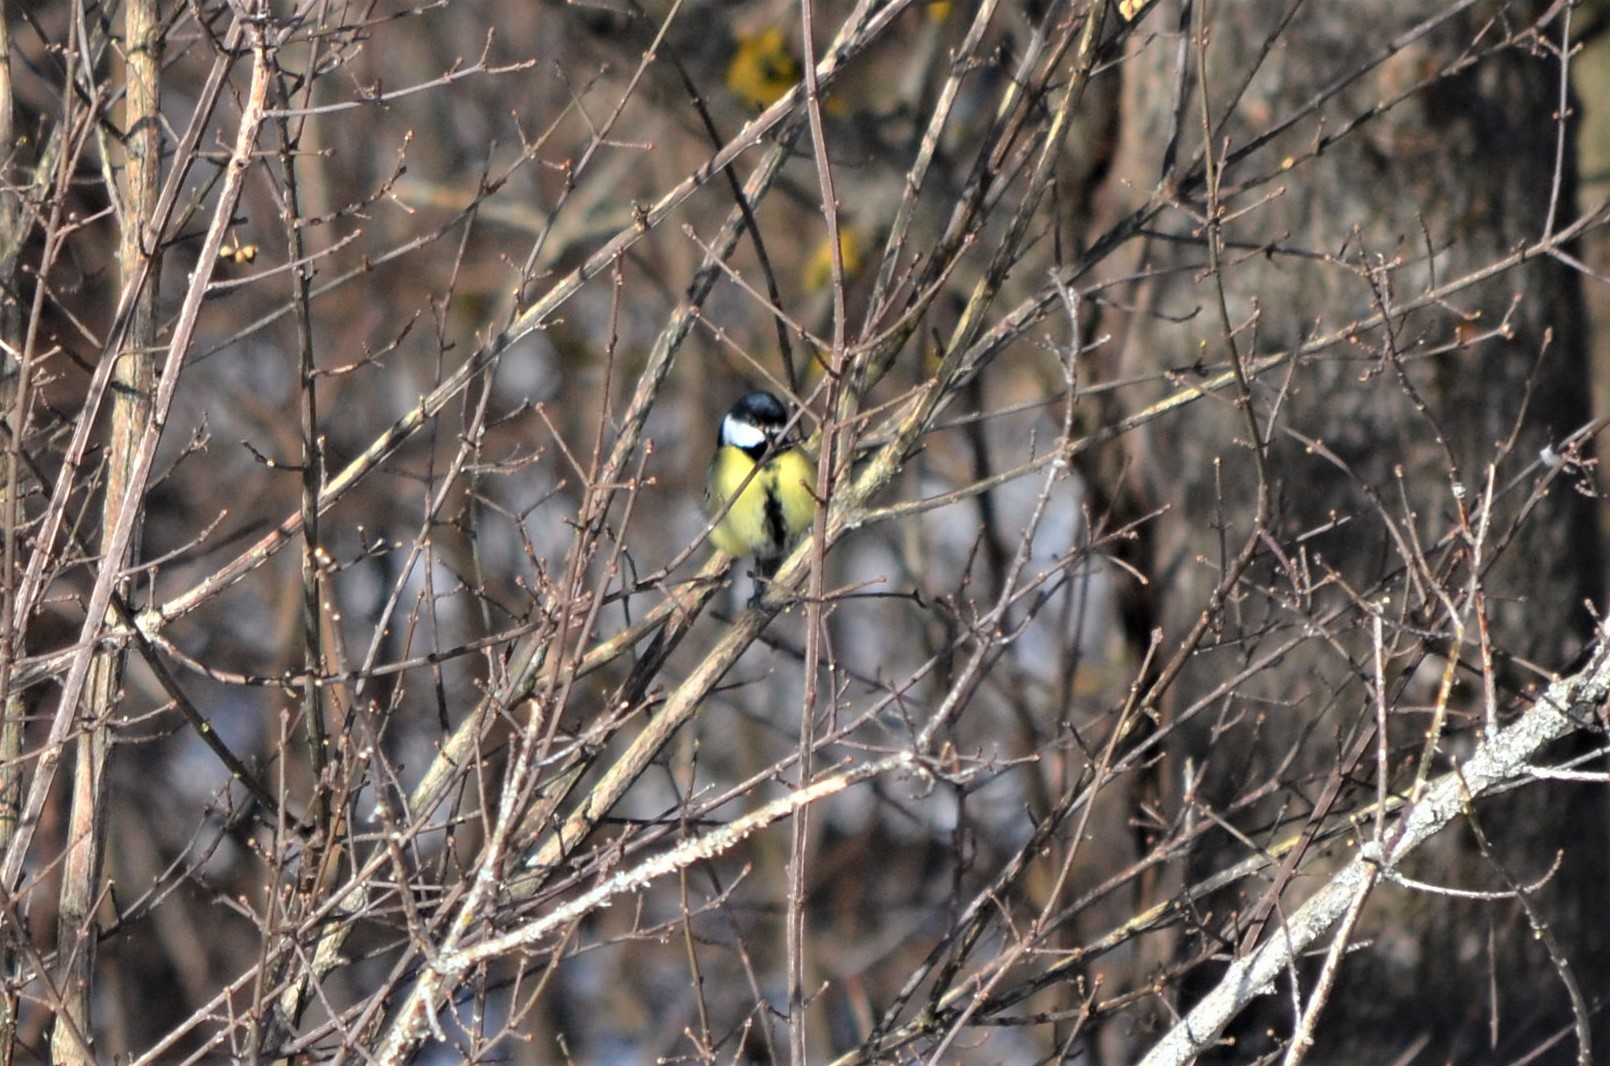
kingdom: Animalia
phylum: Chordata
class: Aves
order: Passeriformes
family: Paridae
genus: Parus
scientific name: Parus major
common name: Great tit
